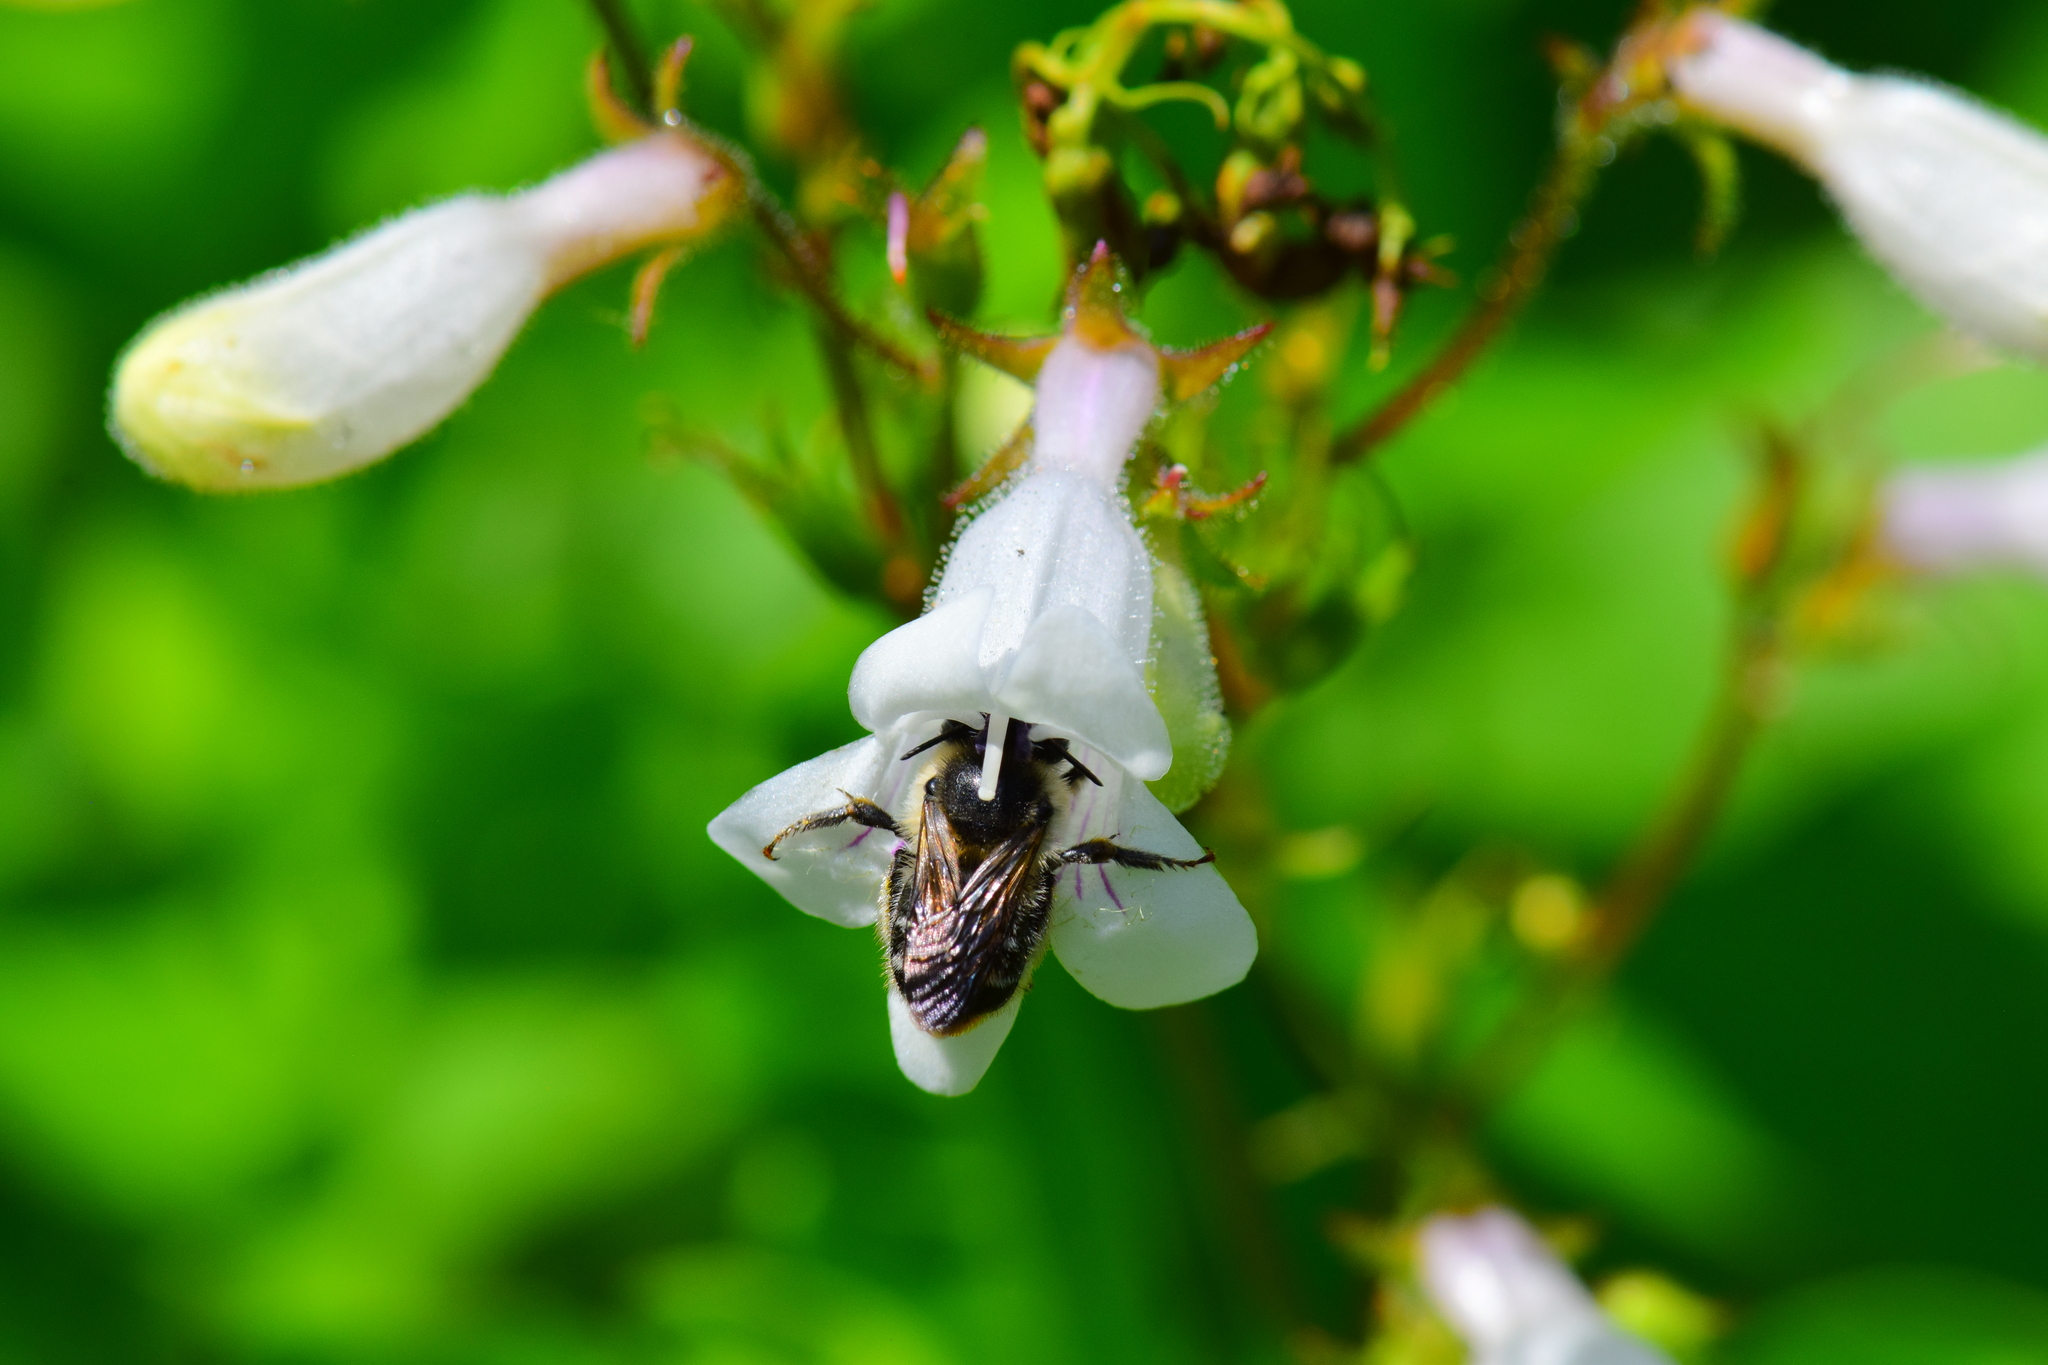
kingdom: Animalia
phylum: Arthropoda
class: Insecta
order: Hymenoptera
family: Apidae
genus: Anthophora
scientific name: Anthophora terminalis
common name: Orange-tipped wood-digger bee
